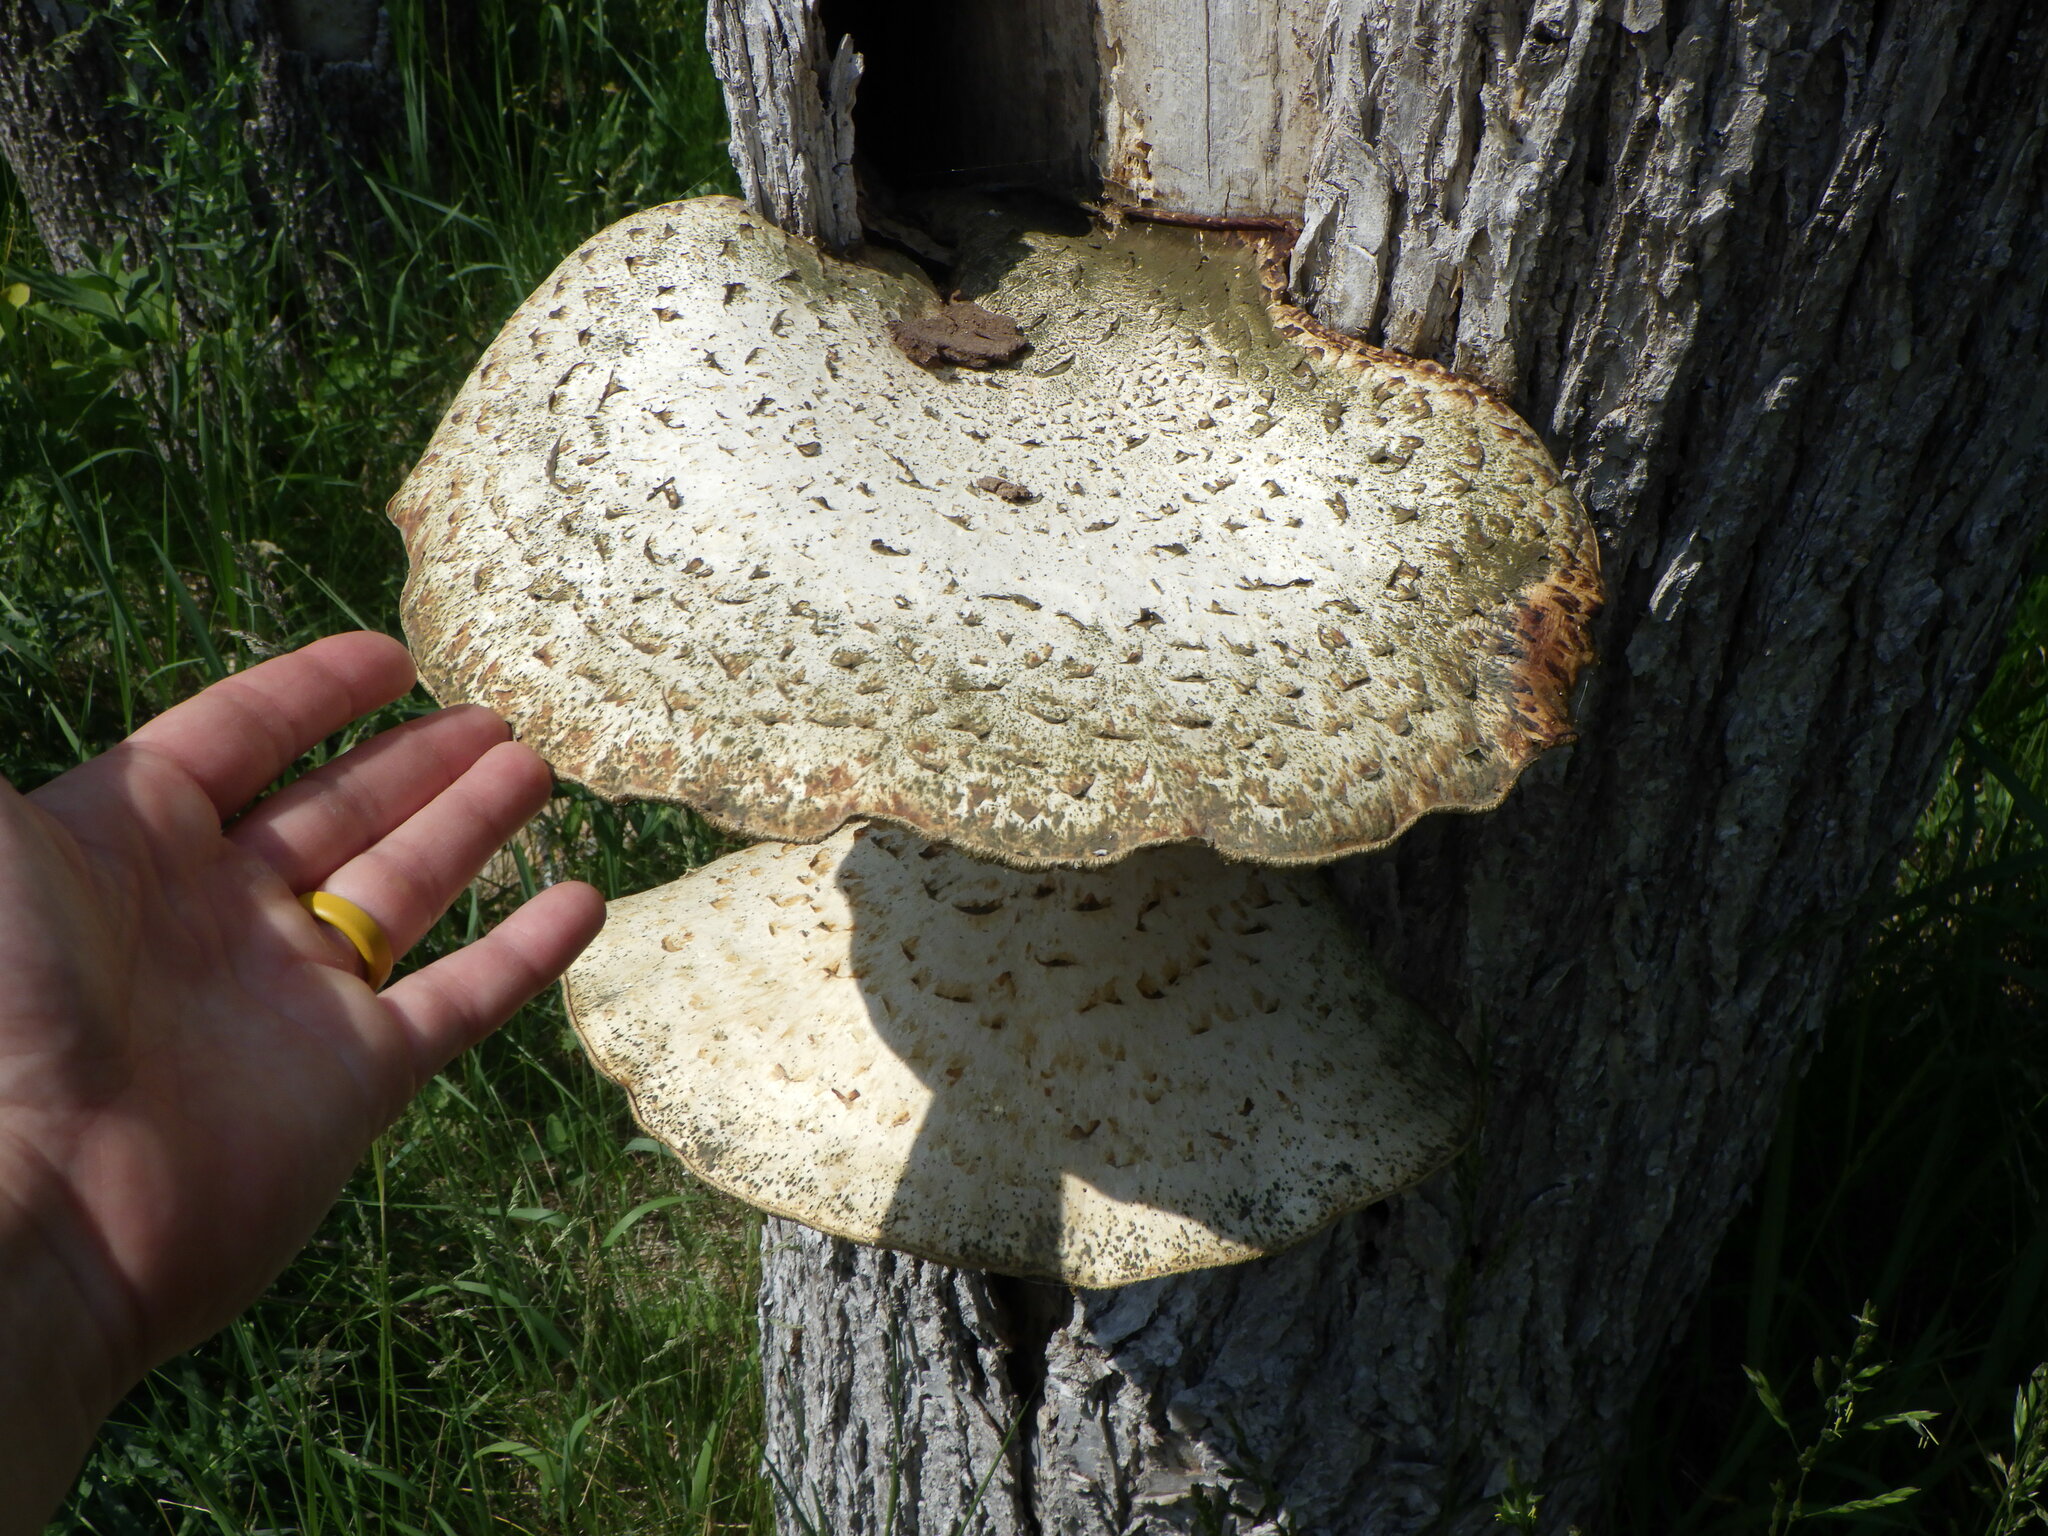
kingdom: Fungi
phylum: Basidiomycota
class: Agaricomycetes
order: Polyporales
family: Polyporaceae
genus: Cerioporus
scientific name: Cerioporus squamosus
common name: Dryad's saddle
